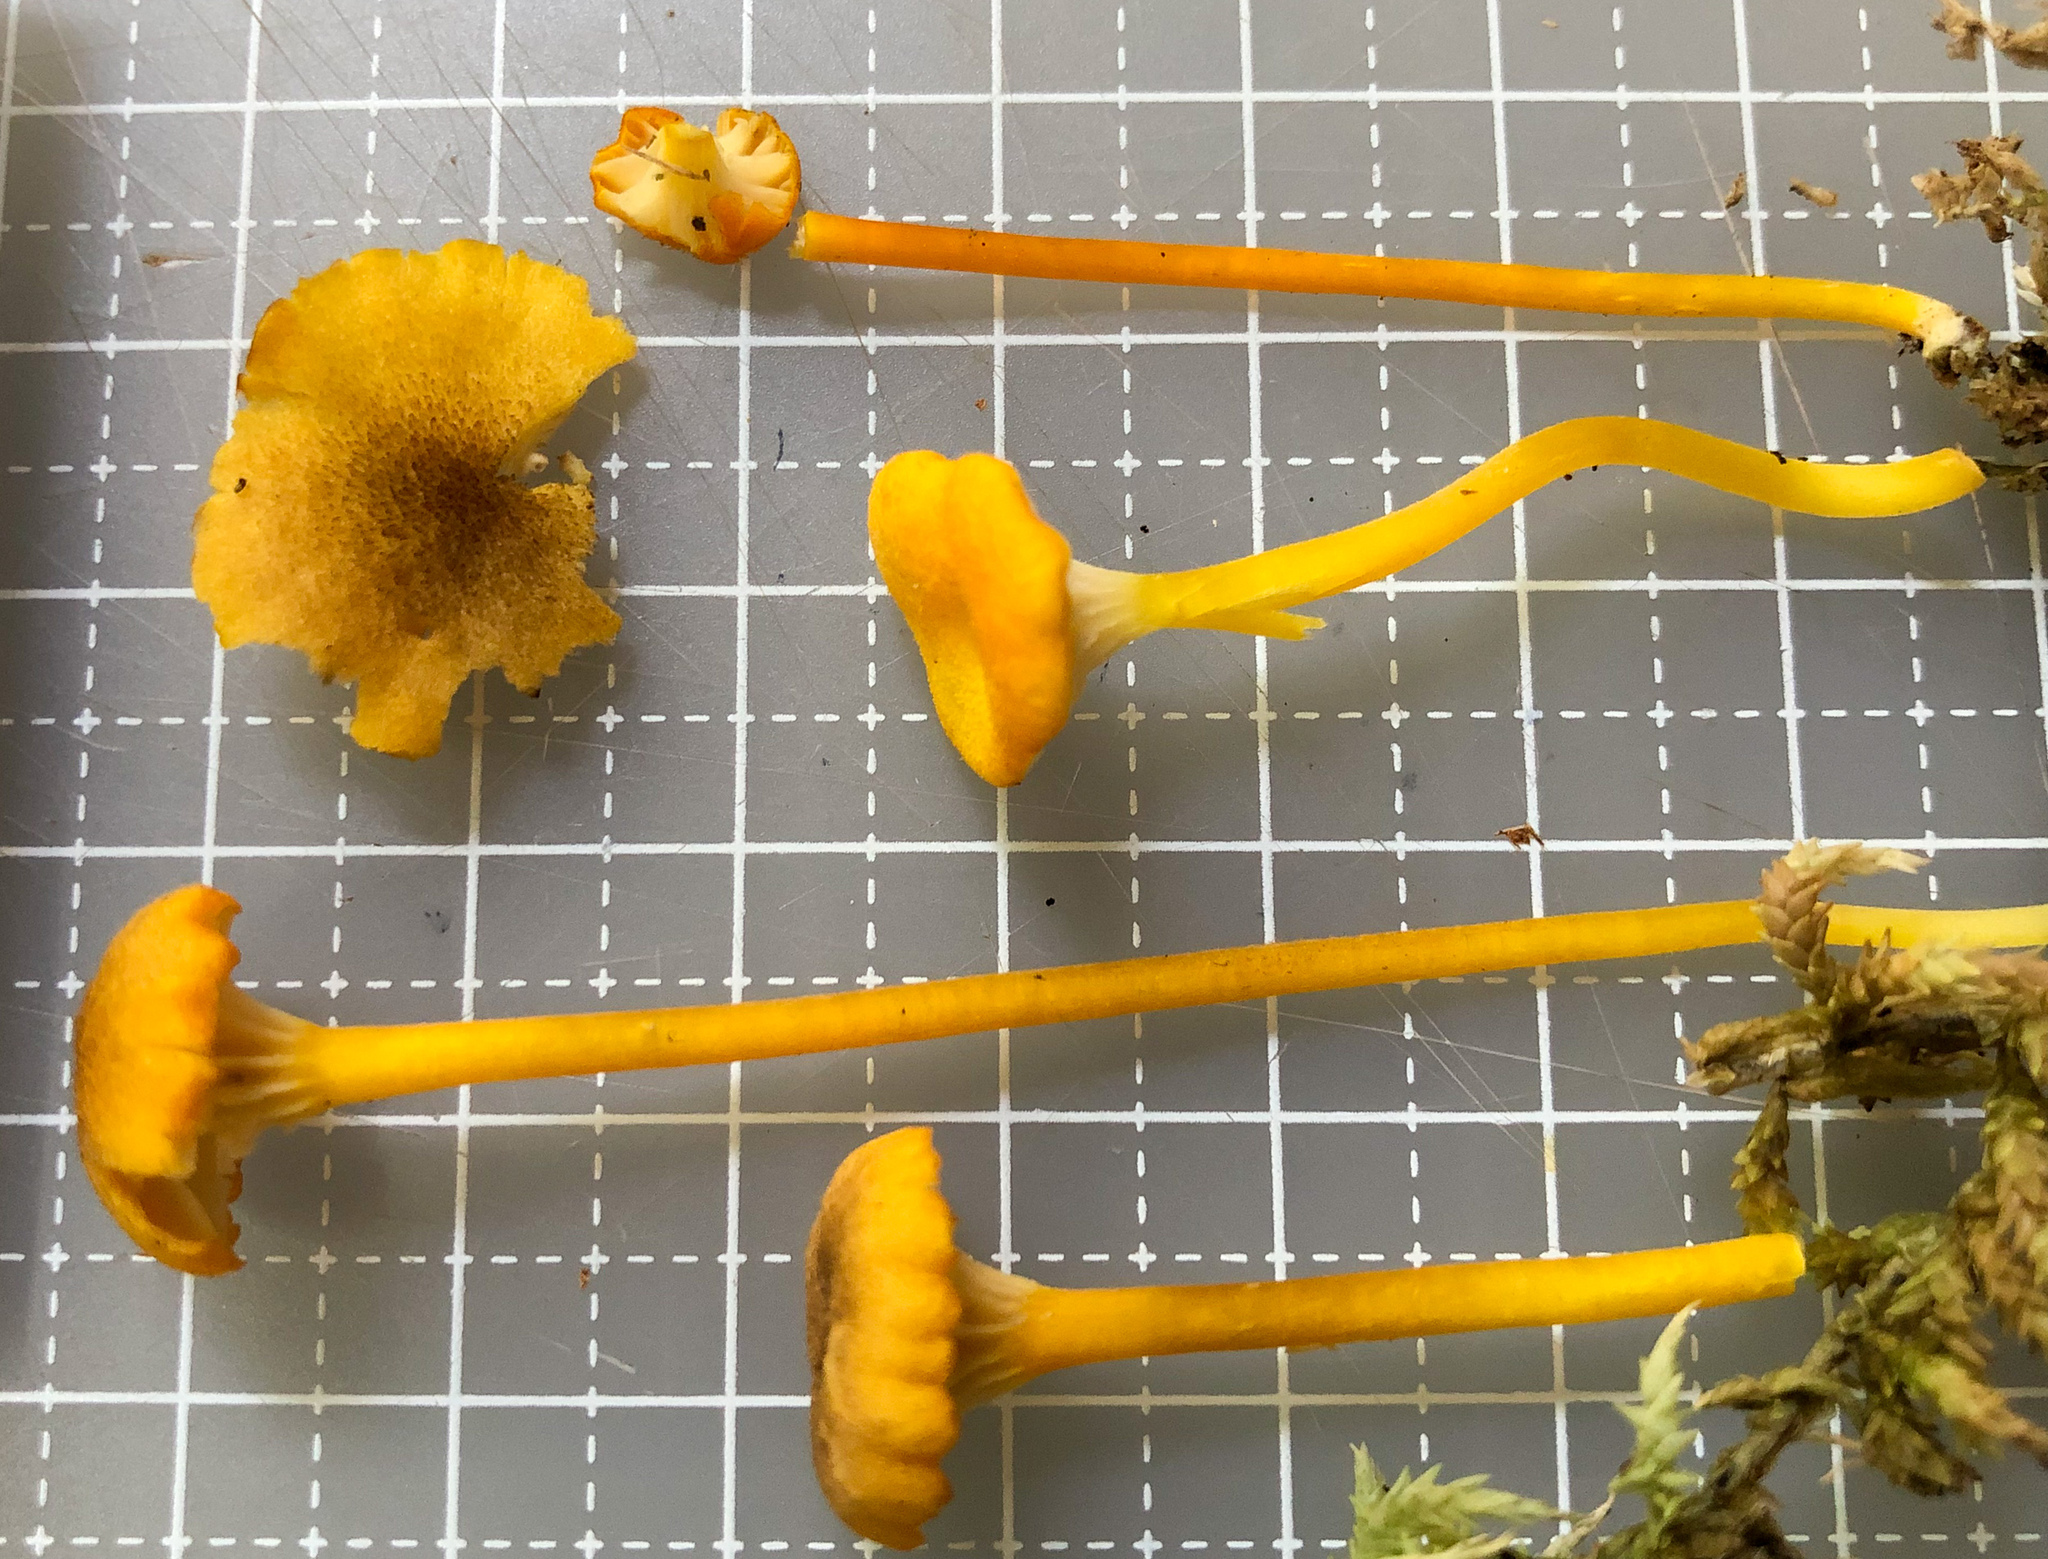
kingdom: Fungi
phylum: Basidiomycota
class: Agaricomycetes
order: Agaricales
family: Hygrophoraceae
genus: Hygrophorus
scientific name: Hygrophorus
